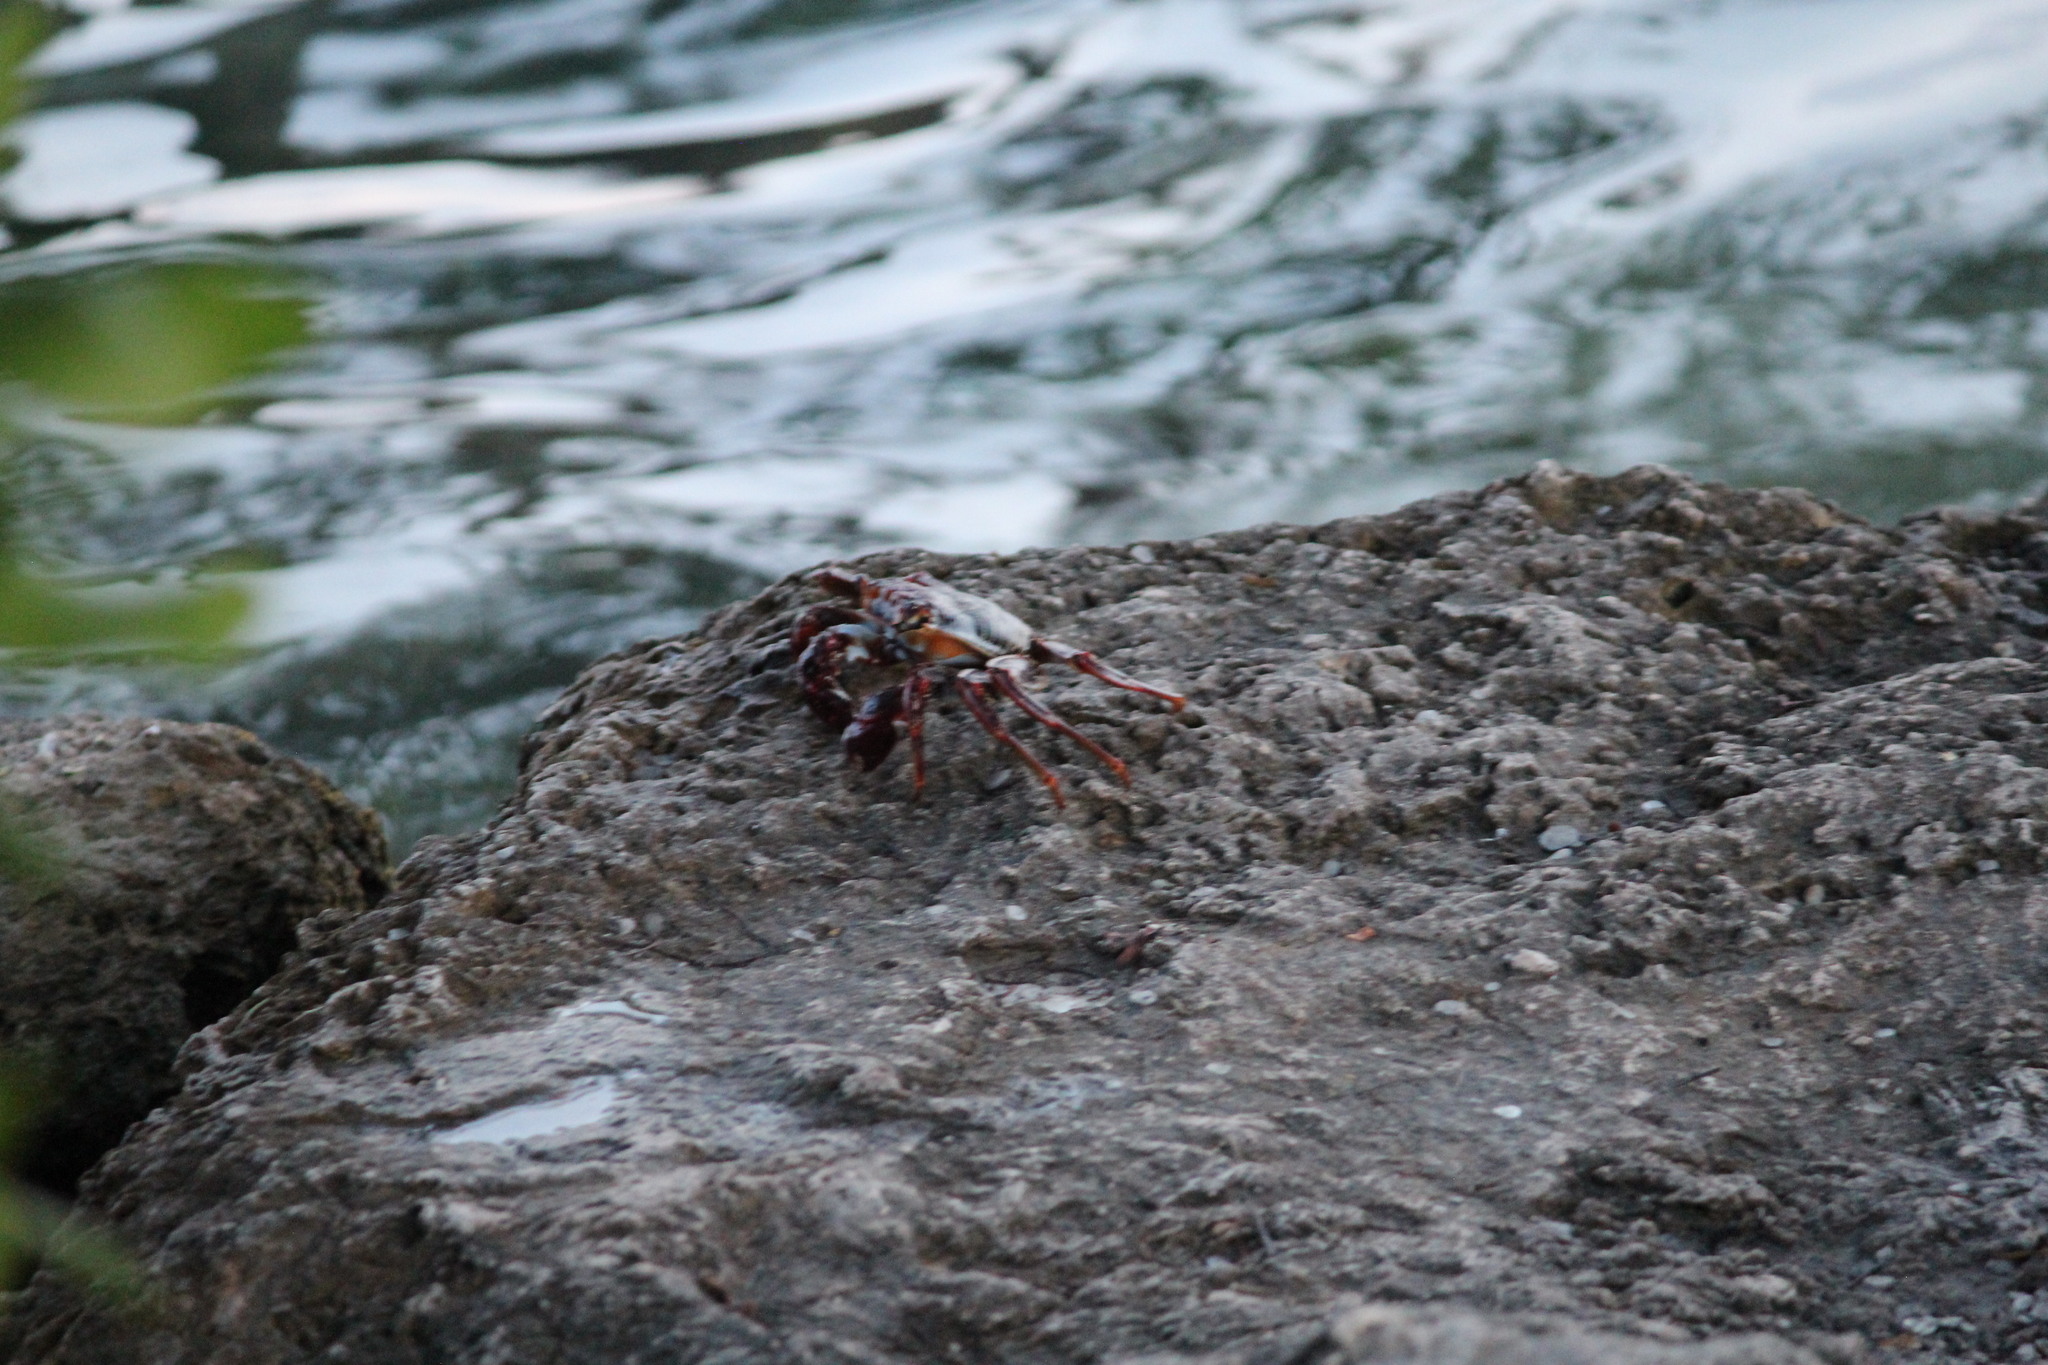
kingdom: Animalia
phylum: Arthropoda
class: Malacostraca
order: Decapoda
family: Grapsidae
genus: Grapsus
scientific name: Grapsus grapsus
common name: Sally lightfoot
